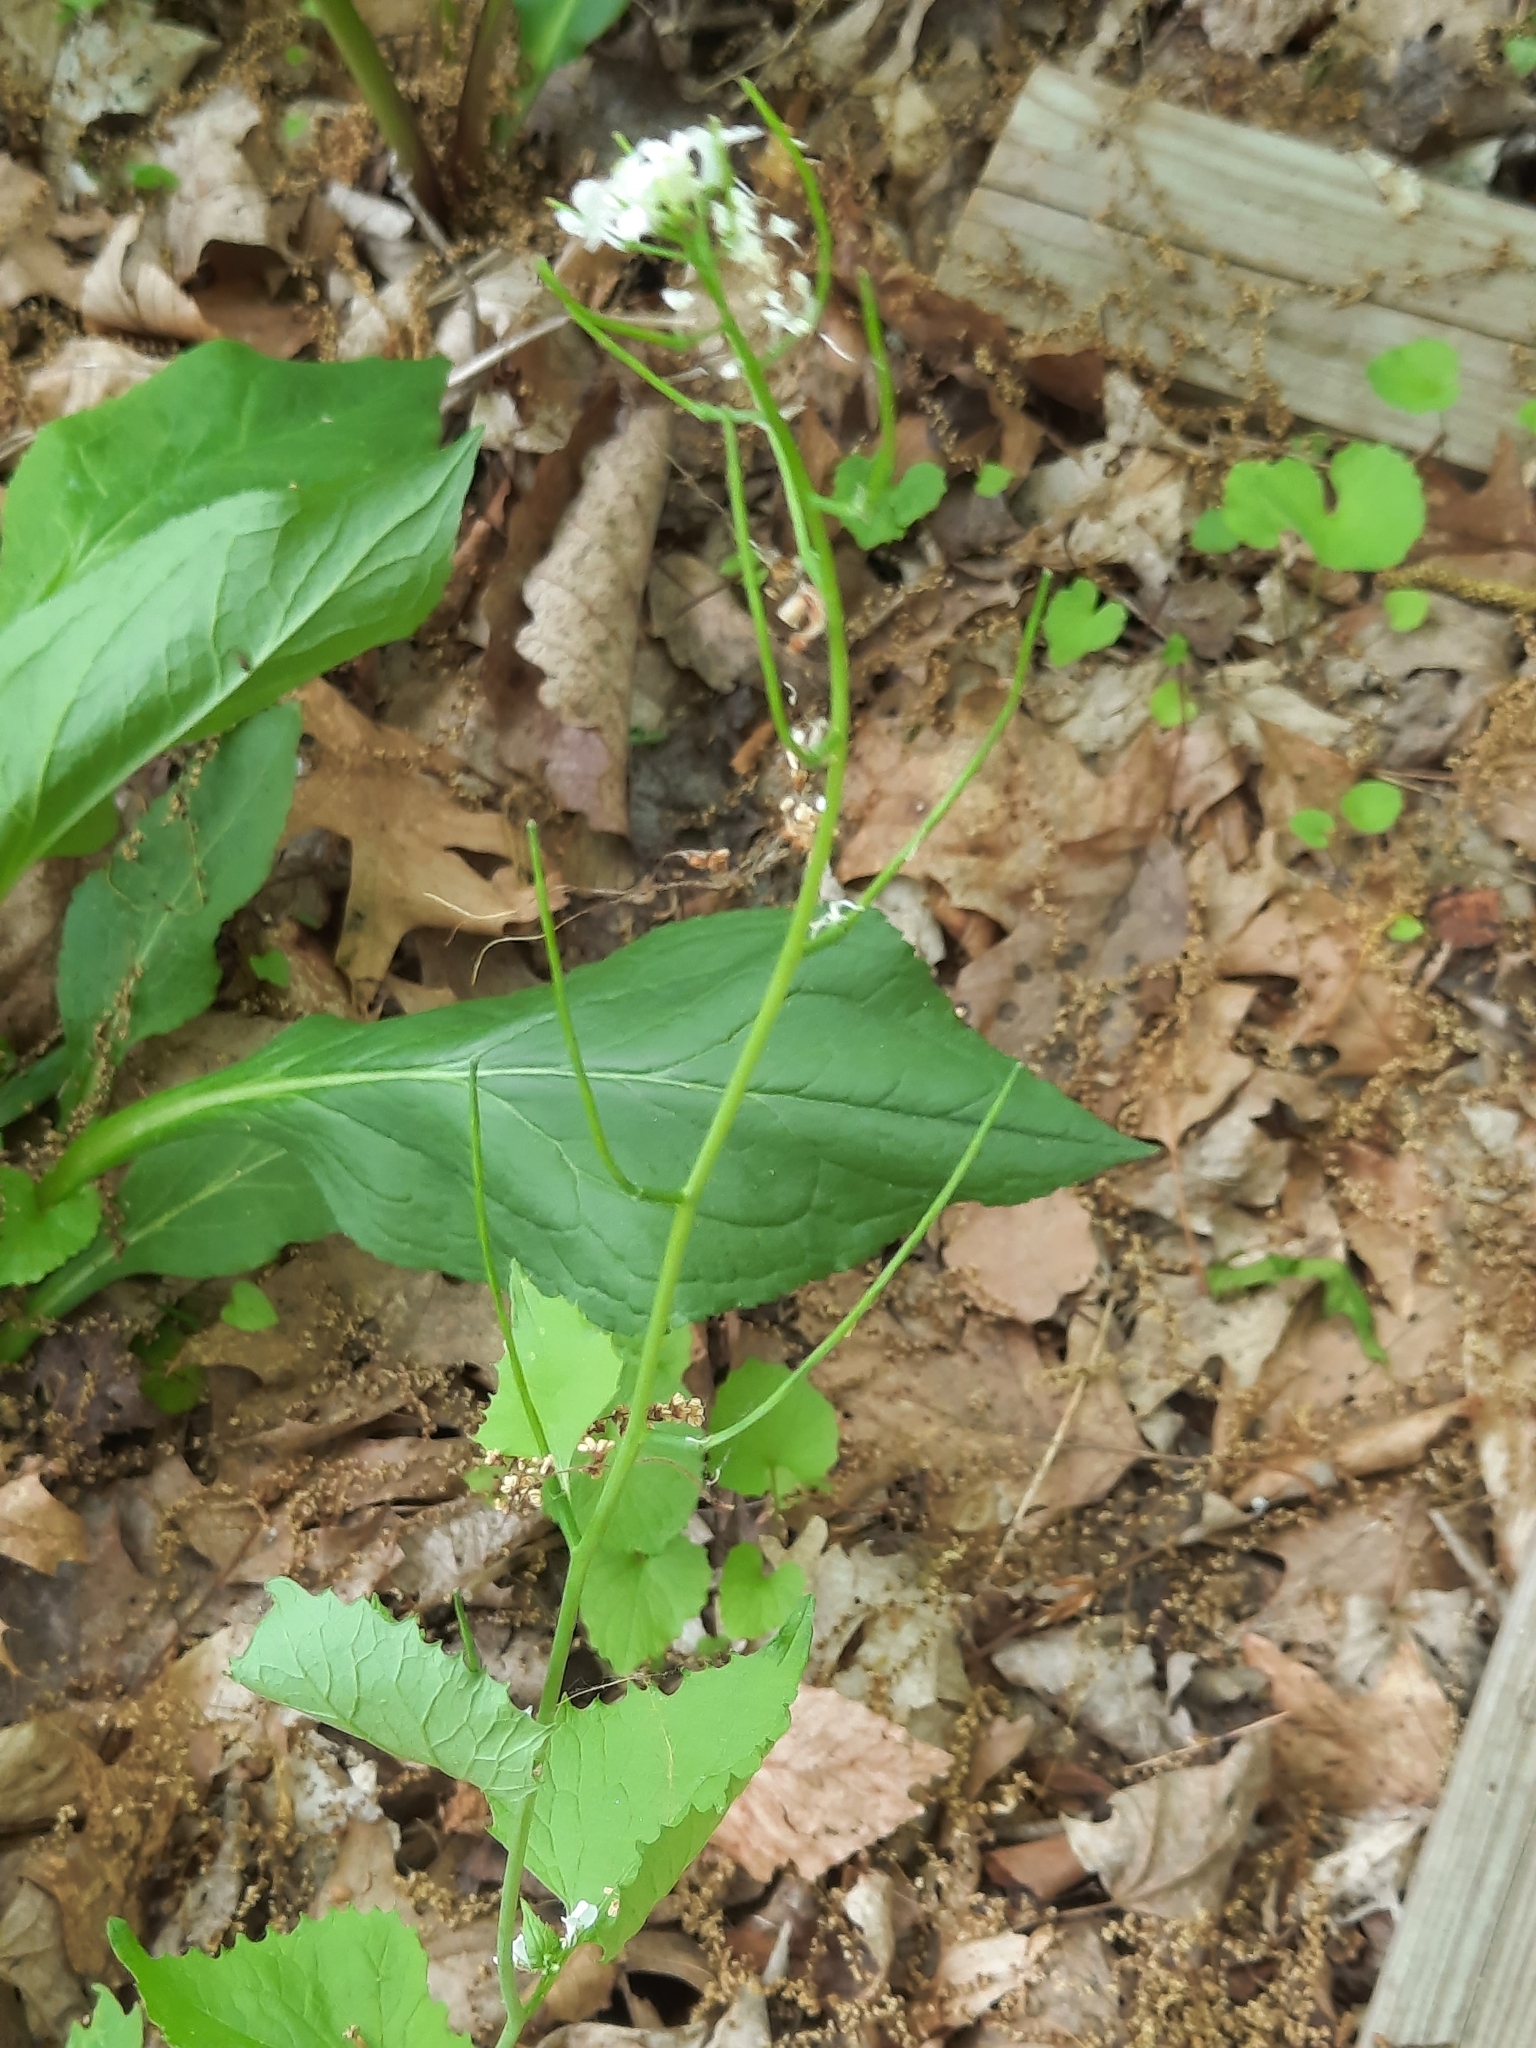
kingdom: Plantae
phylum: Tracheophyta
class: Magnoliopsida
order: Brassicales
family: Brassicaceae
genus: Alliaria
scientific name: Alliaria petiolata
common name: Garlic mustard
